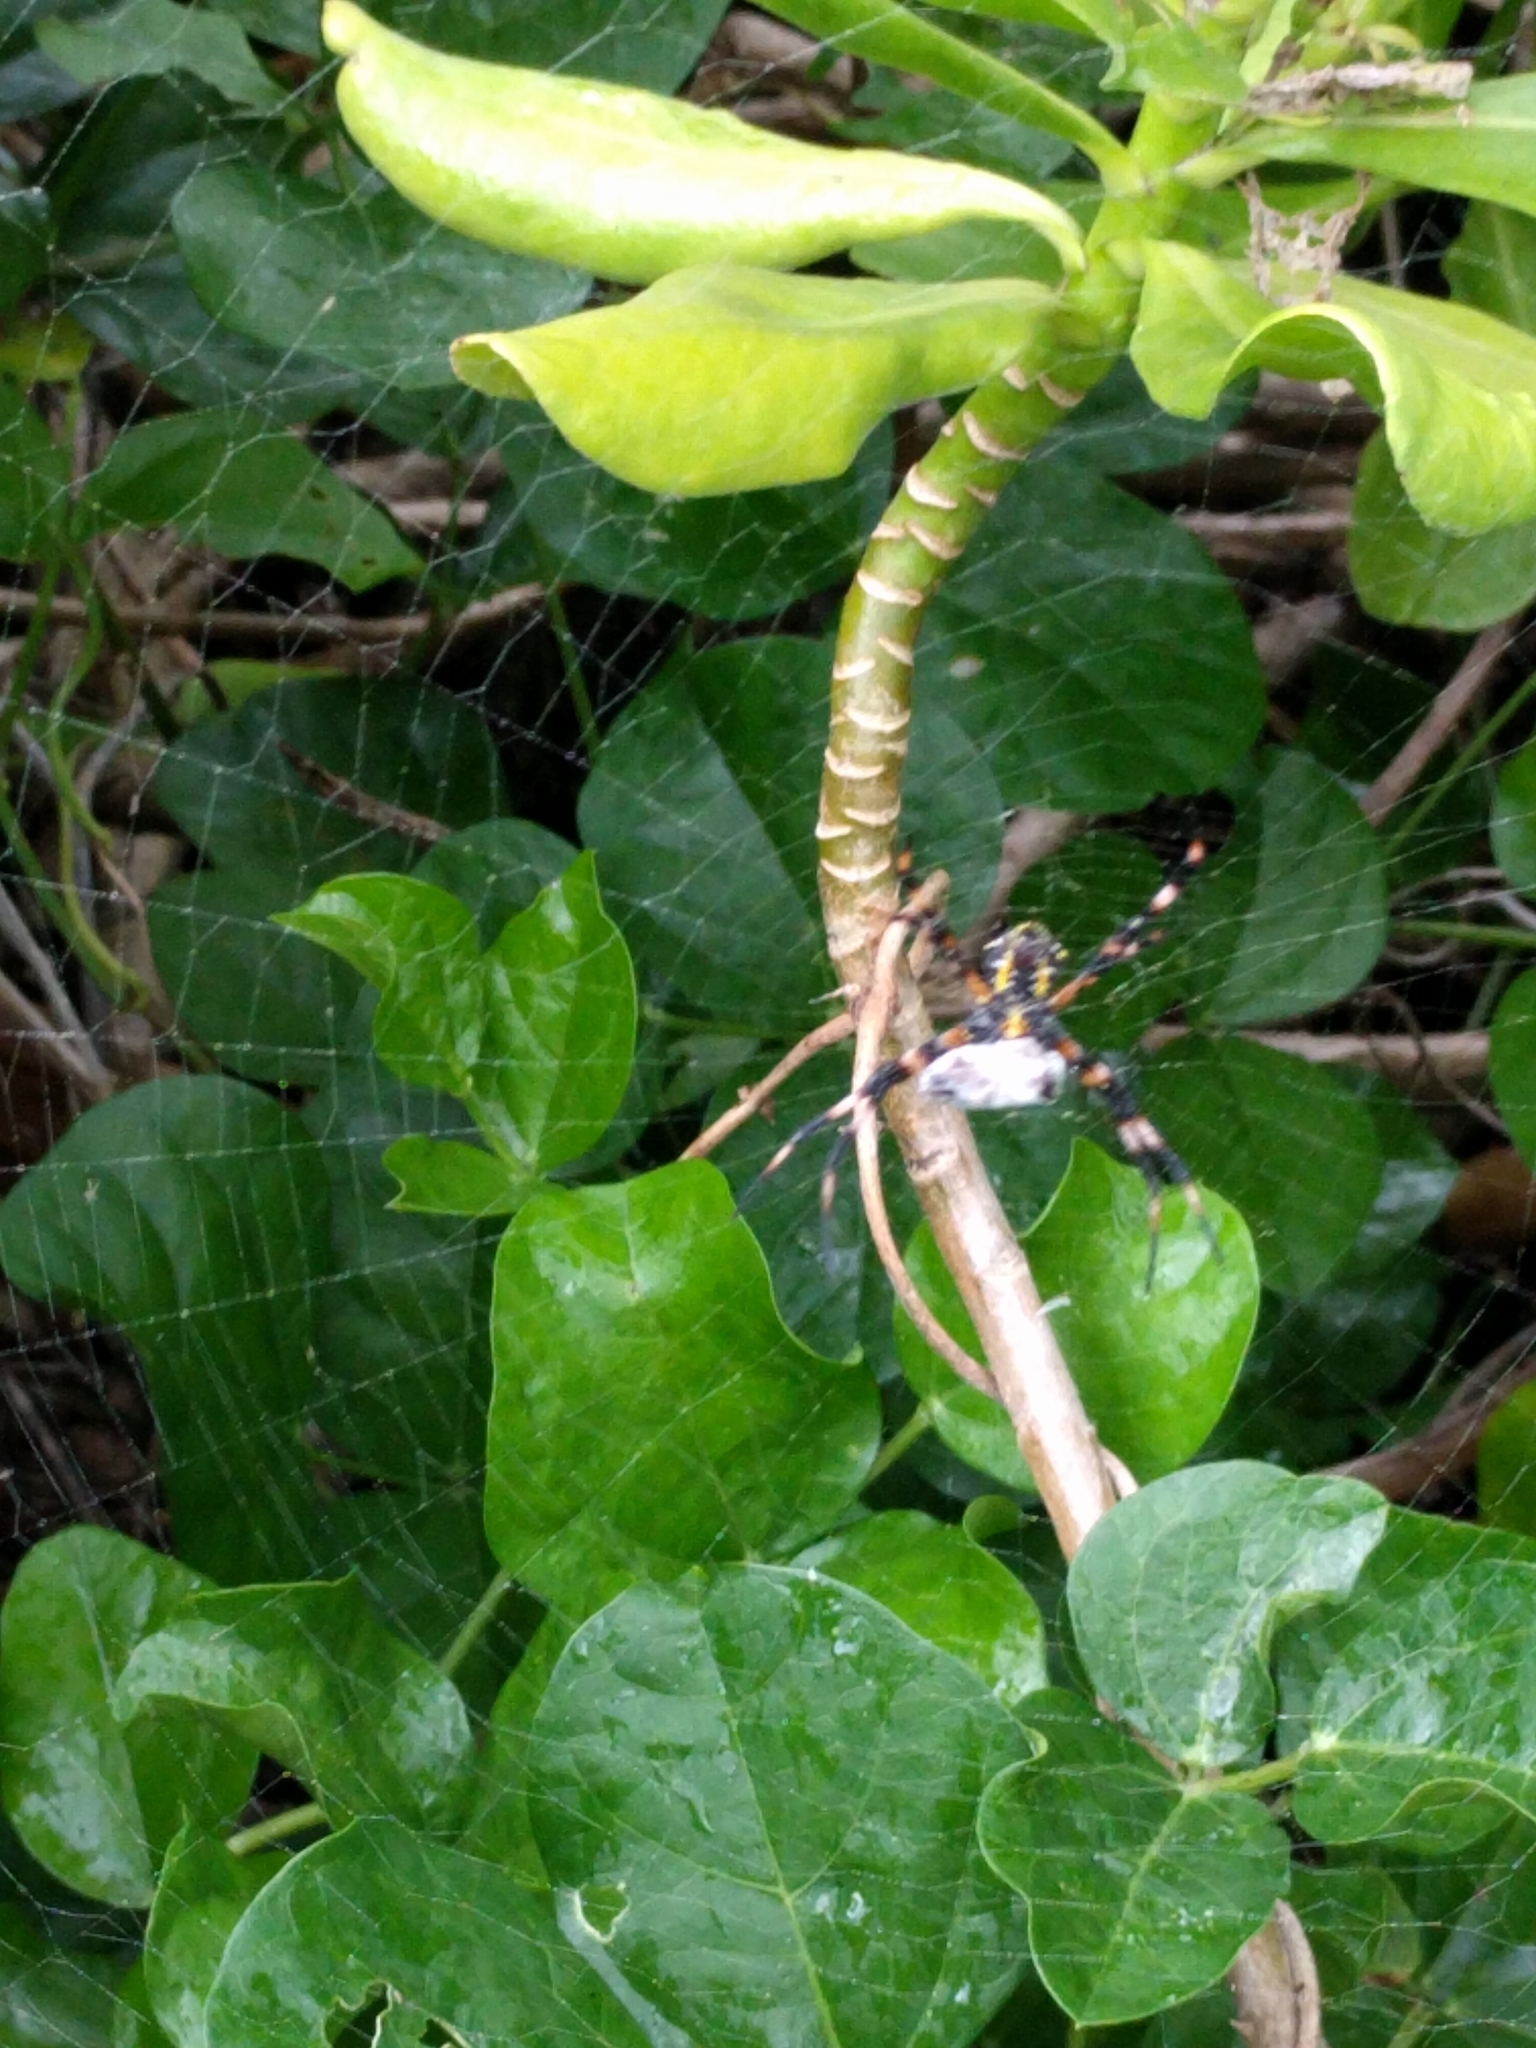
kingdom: Animalia
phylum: Arthropoda
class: Arachnida
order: Araneae
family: Araneidae
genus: Argiope
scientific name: Argiope appensa
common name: Garden spider
